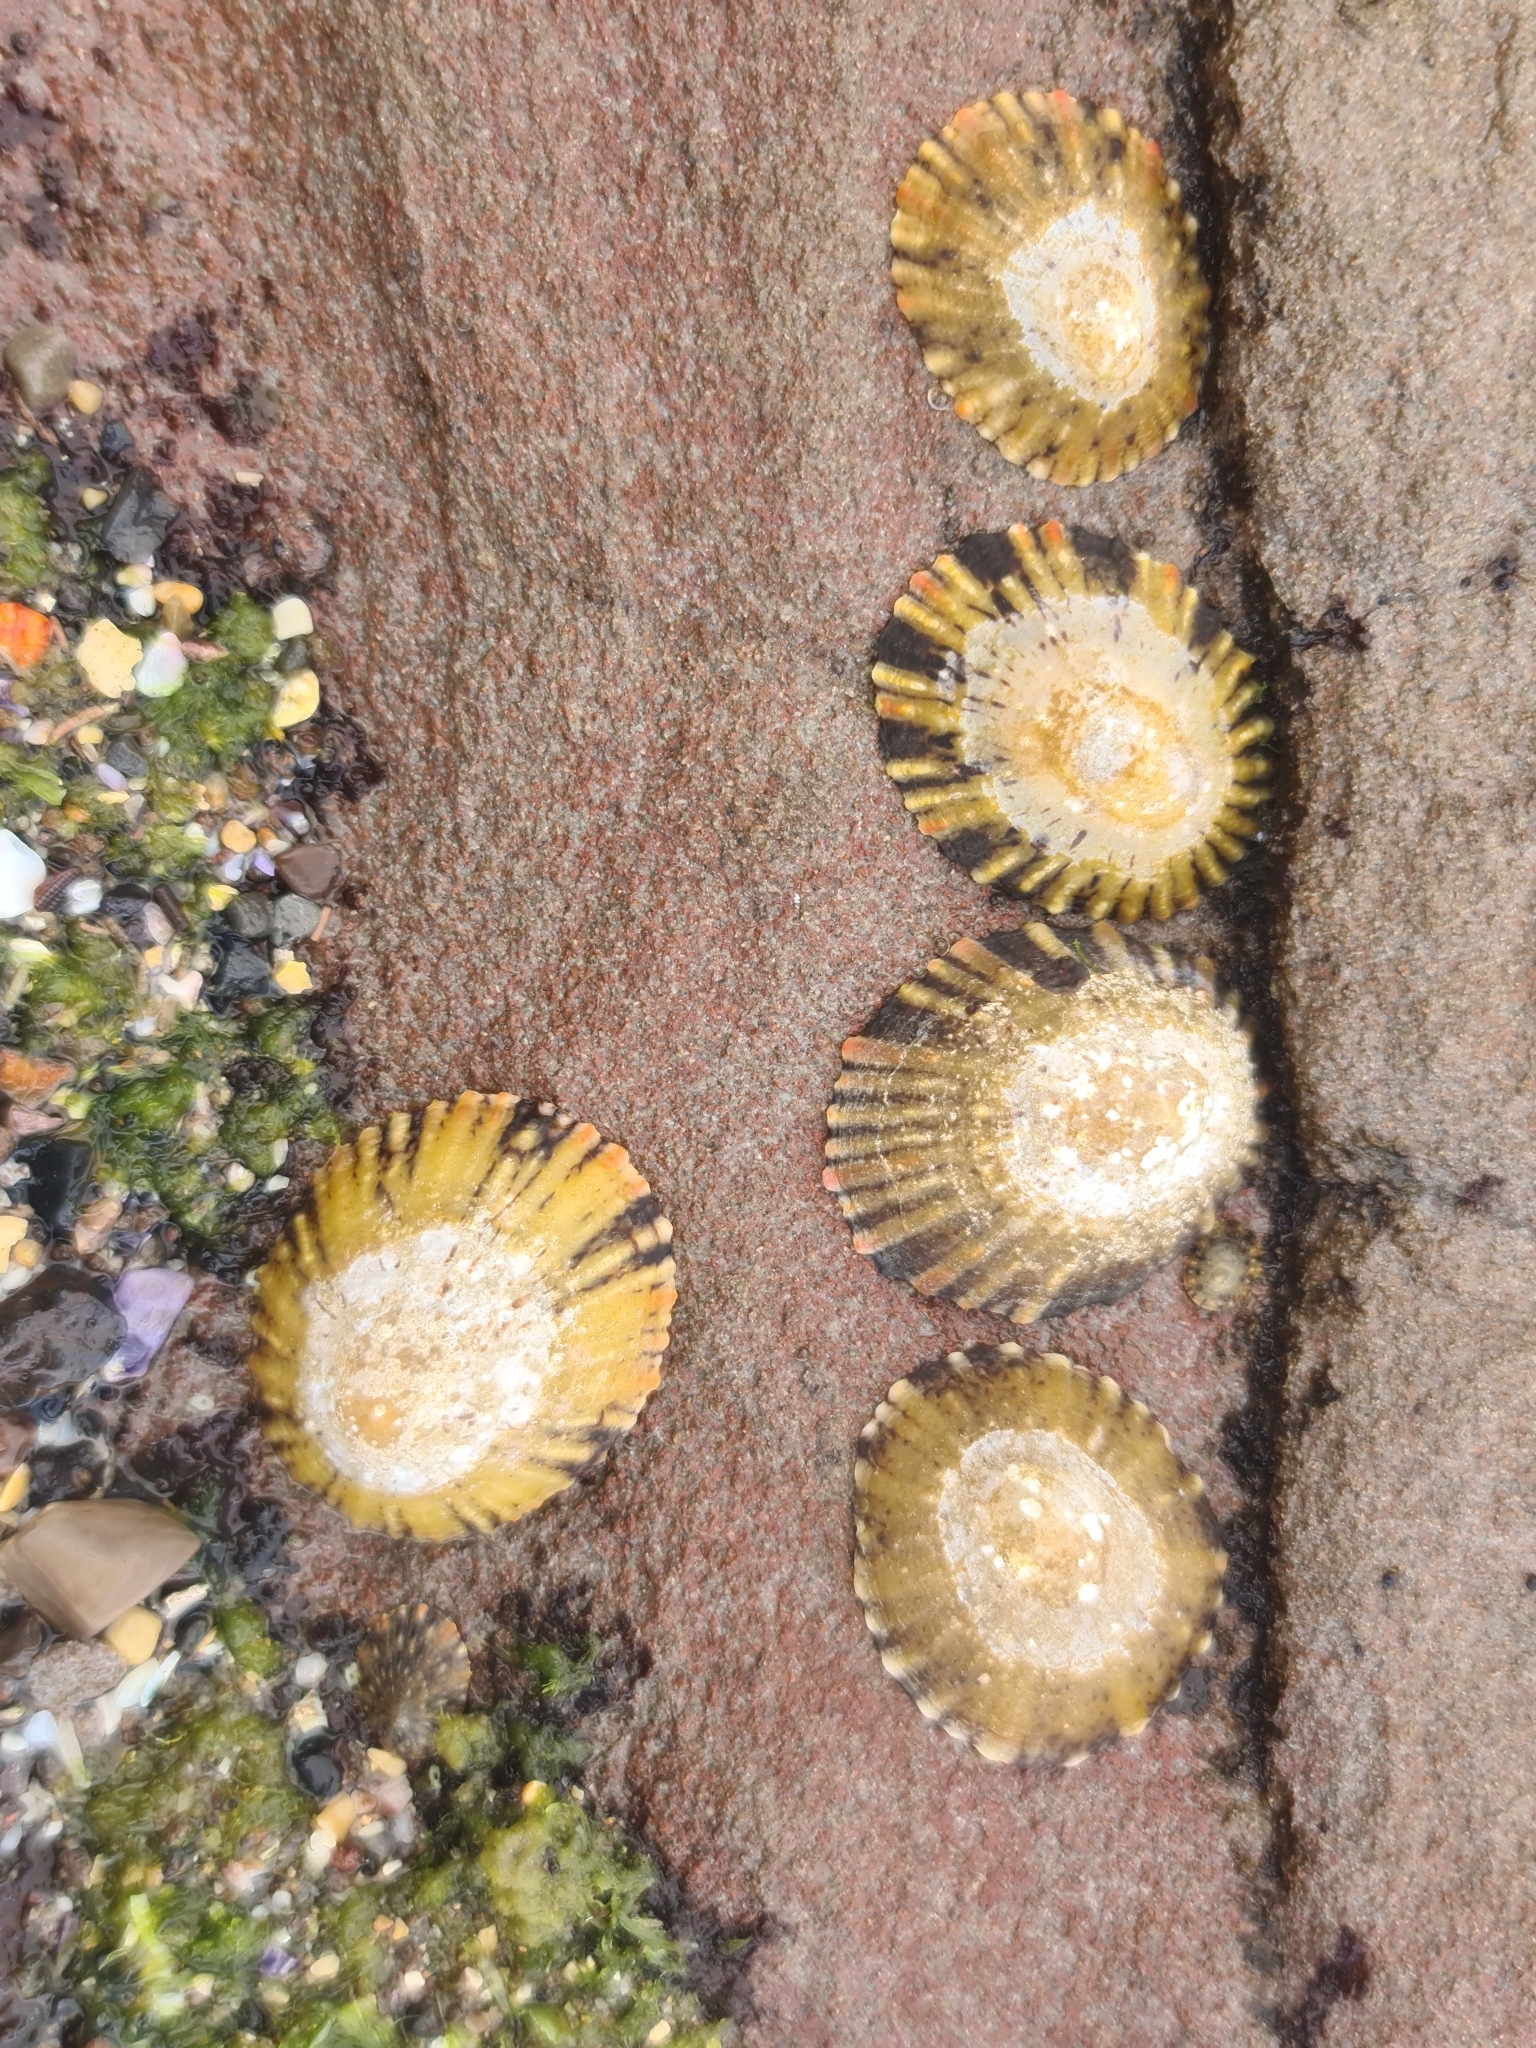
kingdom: Animalia
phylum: Mollusca
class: Gastropoda
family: Nacellidae
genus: Cellana
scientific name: Cellana tramoserica
